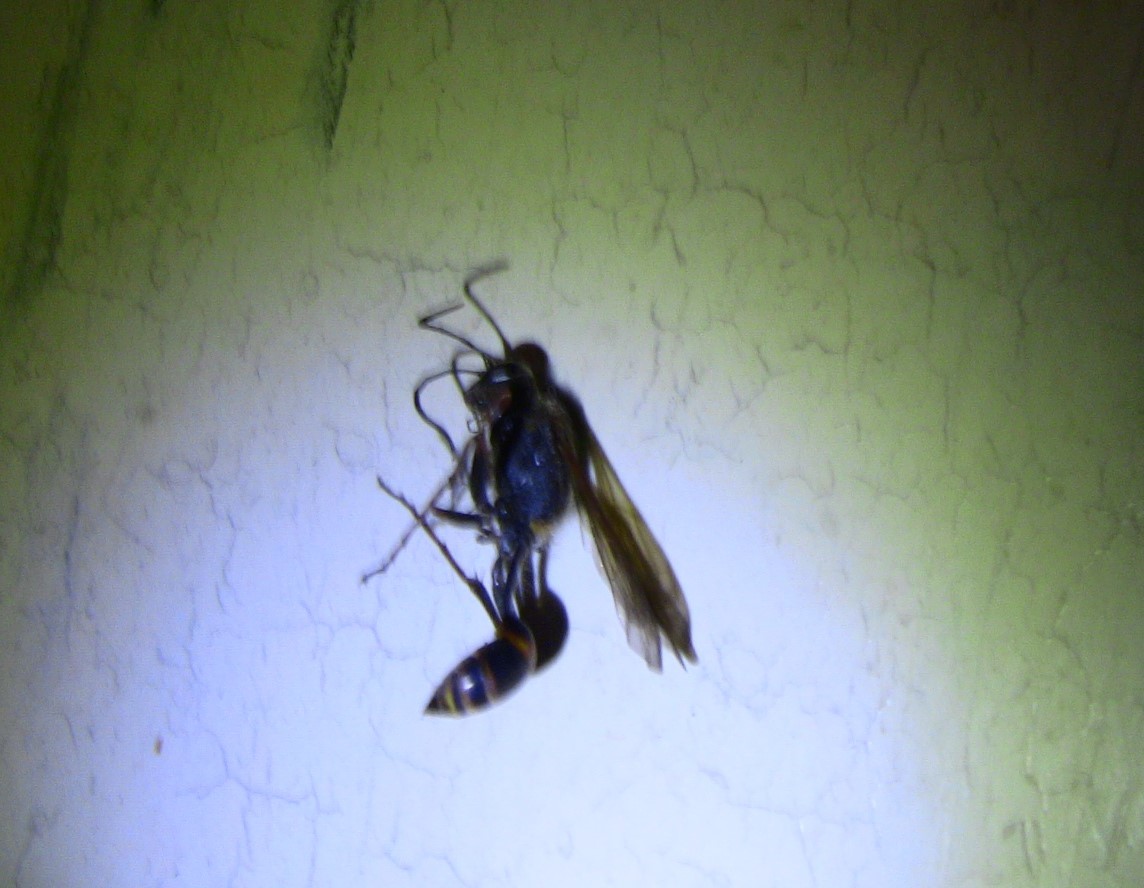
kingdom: Animalia
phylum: Arthropoda
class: Insecta
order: Hymenoptera
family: Sphecidae
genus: Sceliphron
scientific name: Sceliphron curvatum
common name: Pèlopèe
